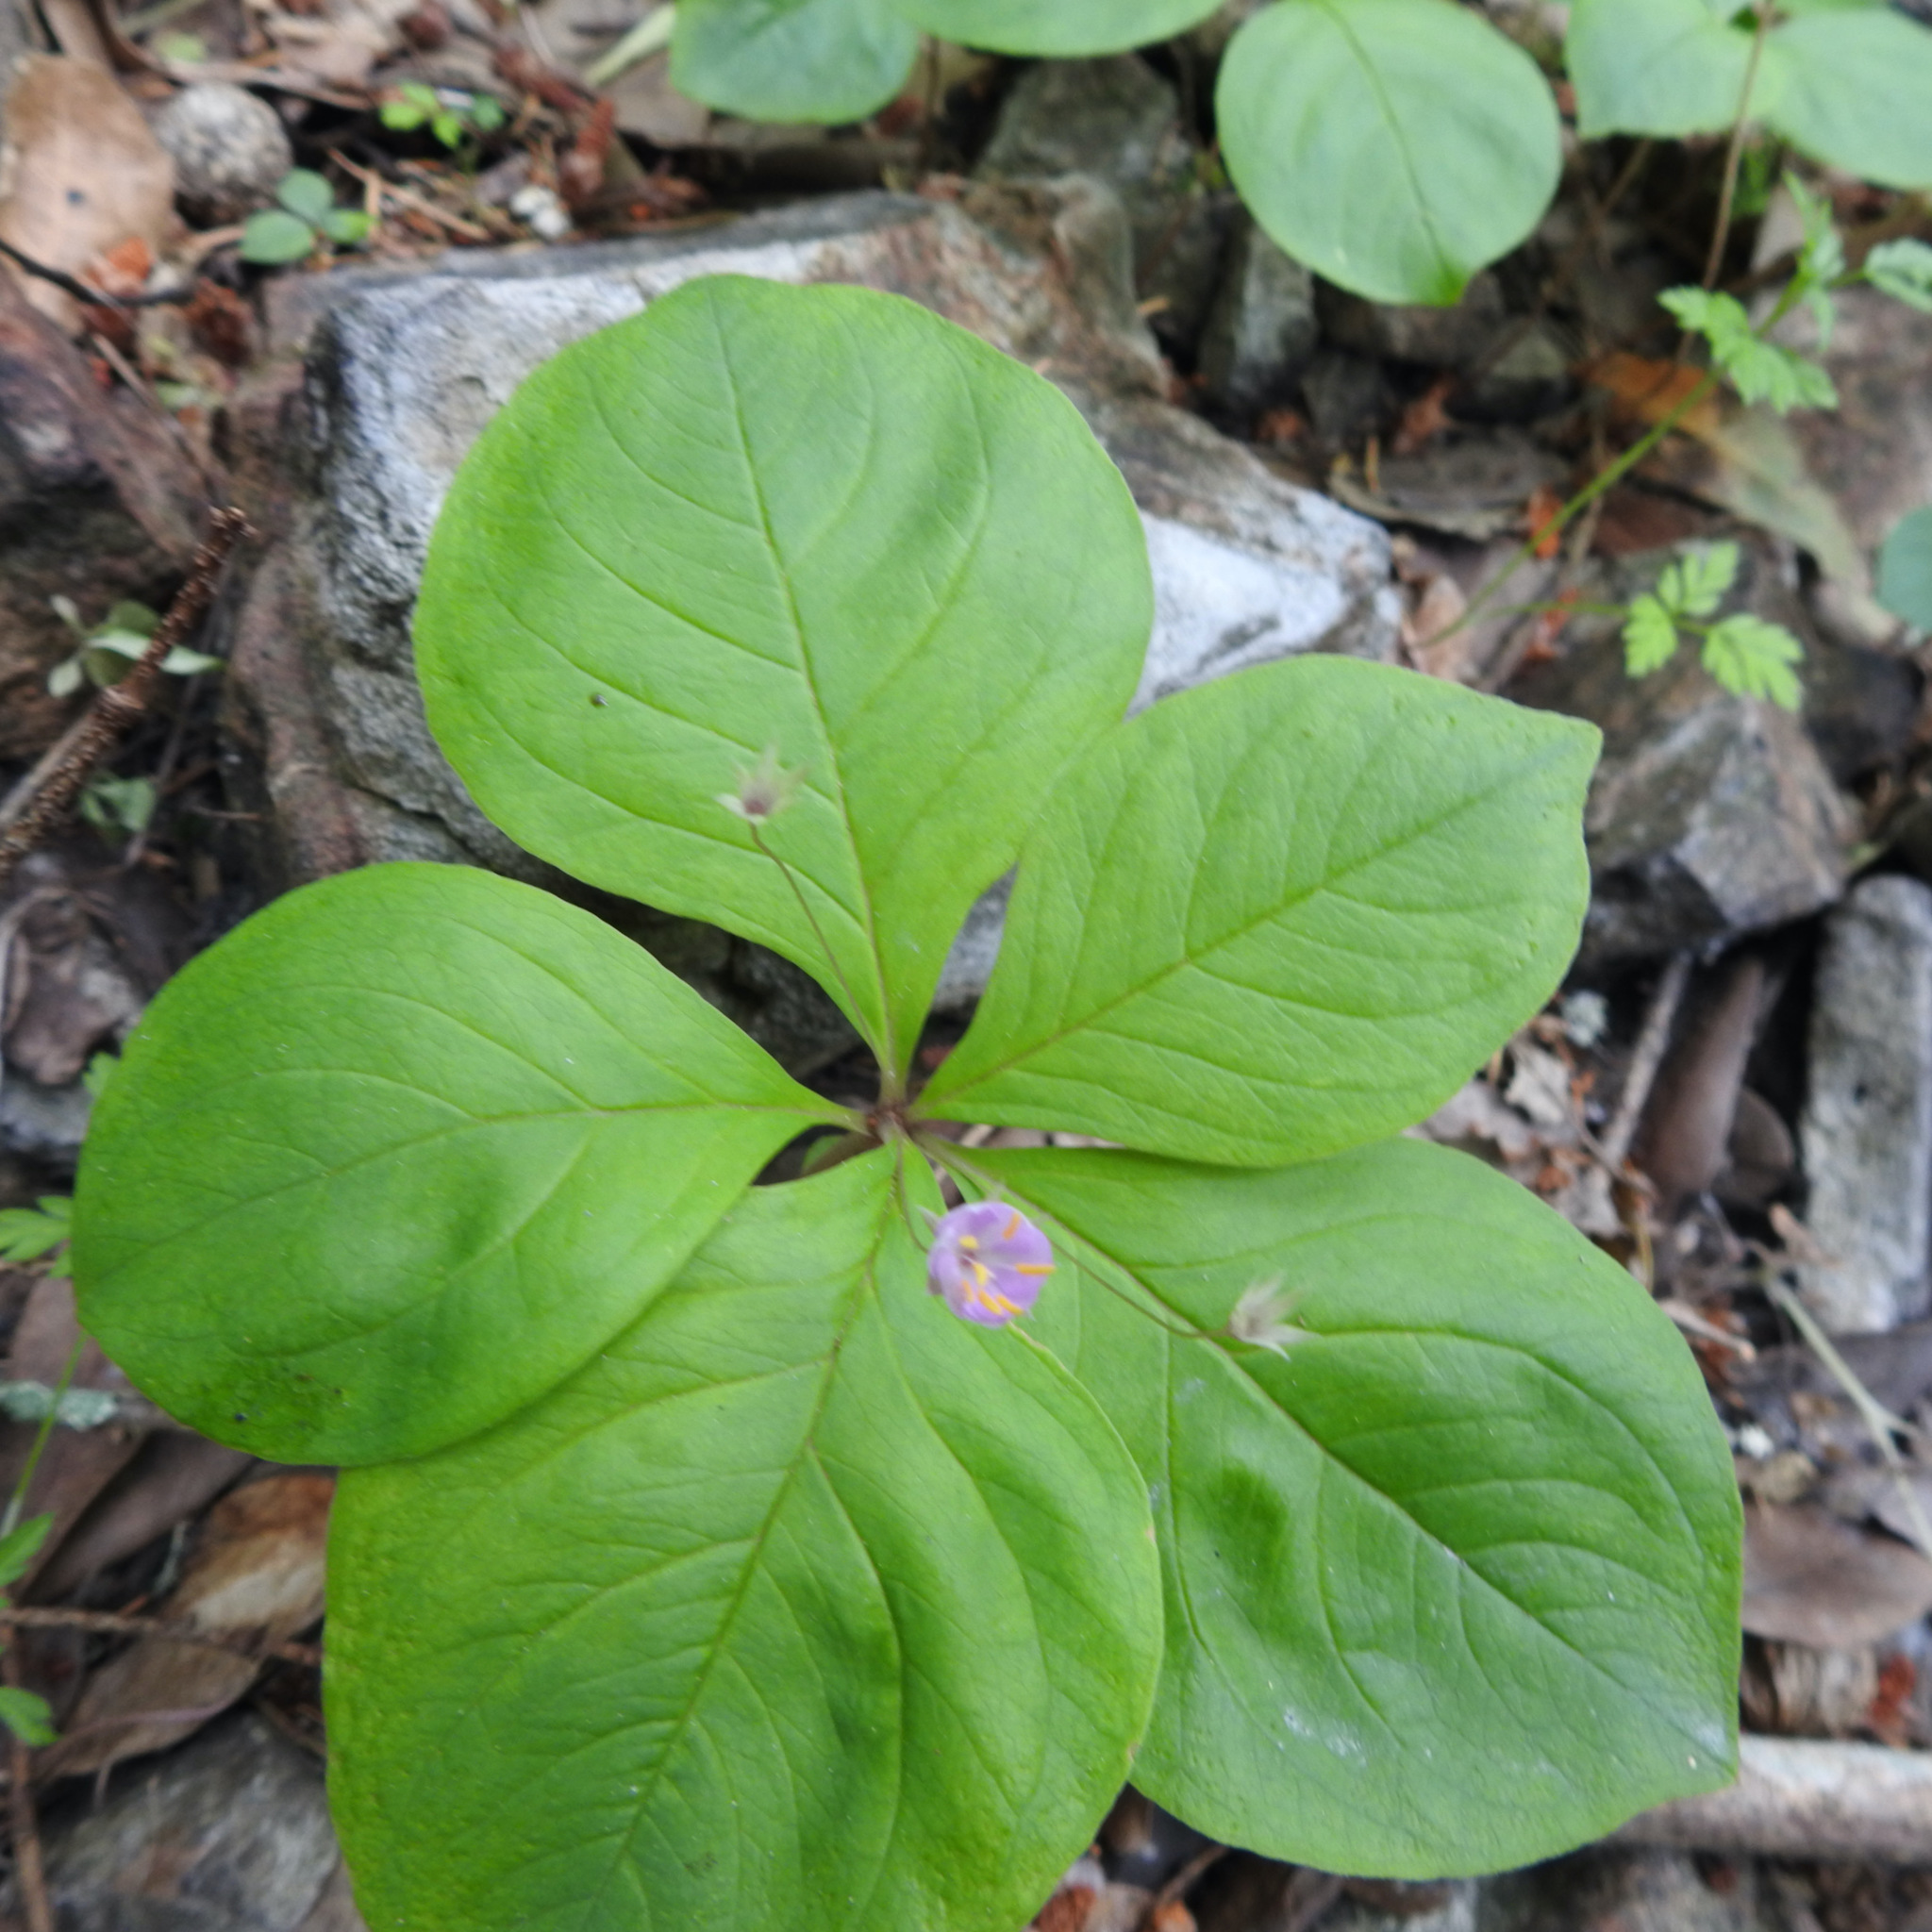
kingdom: Plantae
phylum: Tracheophyta
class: Magnoliopsida
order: Ericales
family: Primulaceae
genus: Lysimachia
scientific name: Lysimachia latifolia
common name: Pacific starflower
